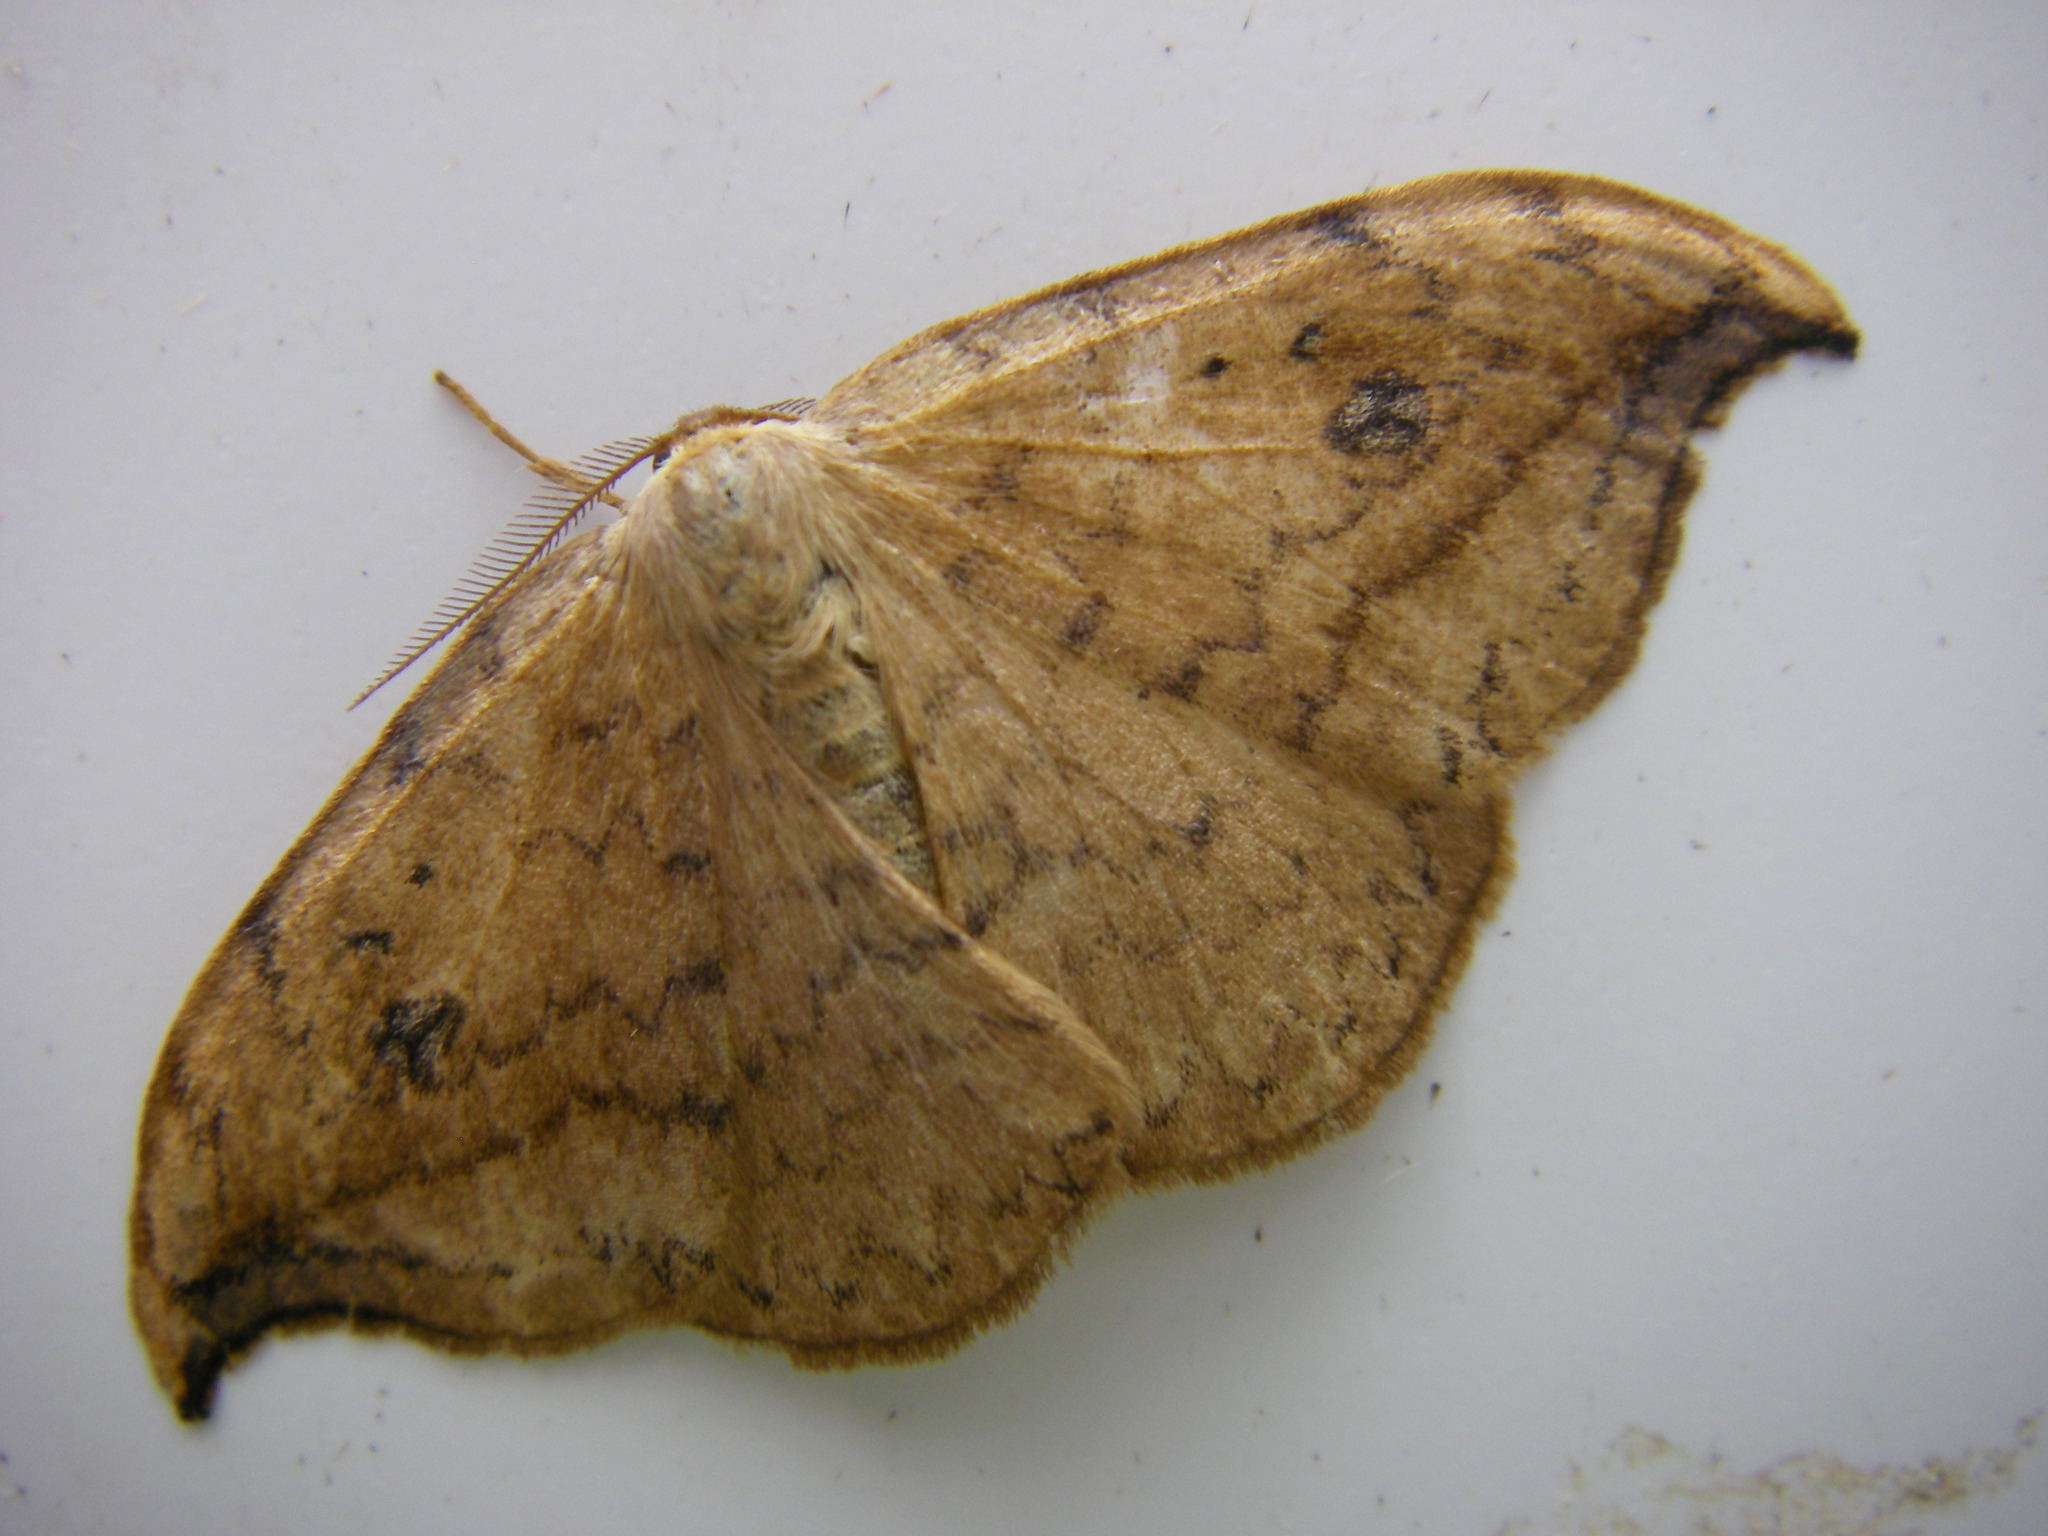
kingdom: Animalia
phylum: Arthropoda
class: Insecta
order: Lepidoptera
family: Drepanidae
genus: Drepana
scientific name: Drepana falcataria
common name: Pebble hook-tip
